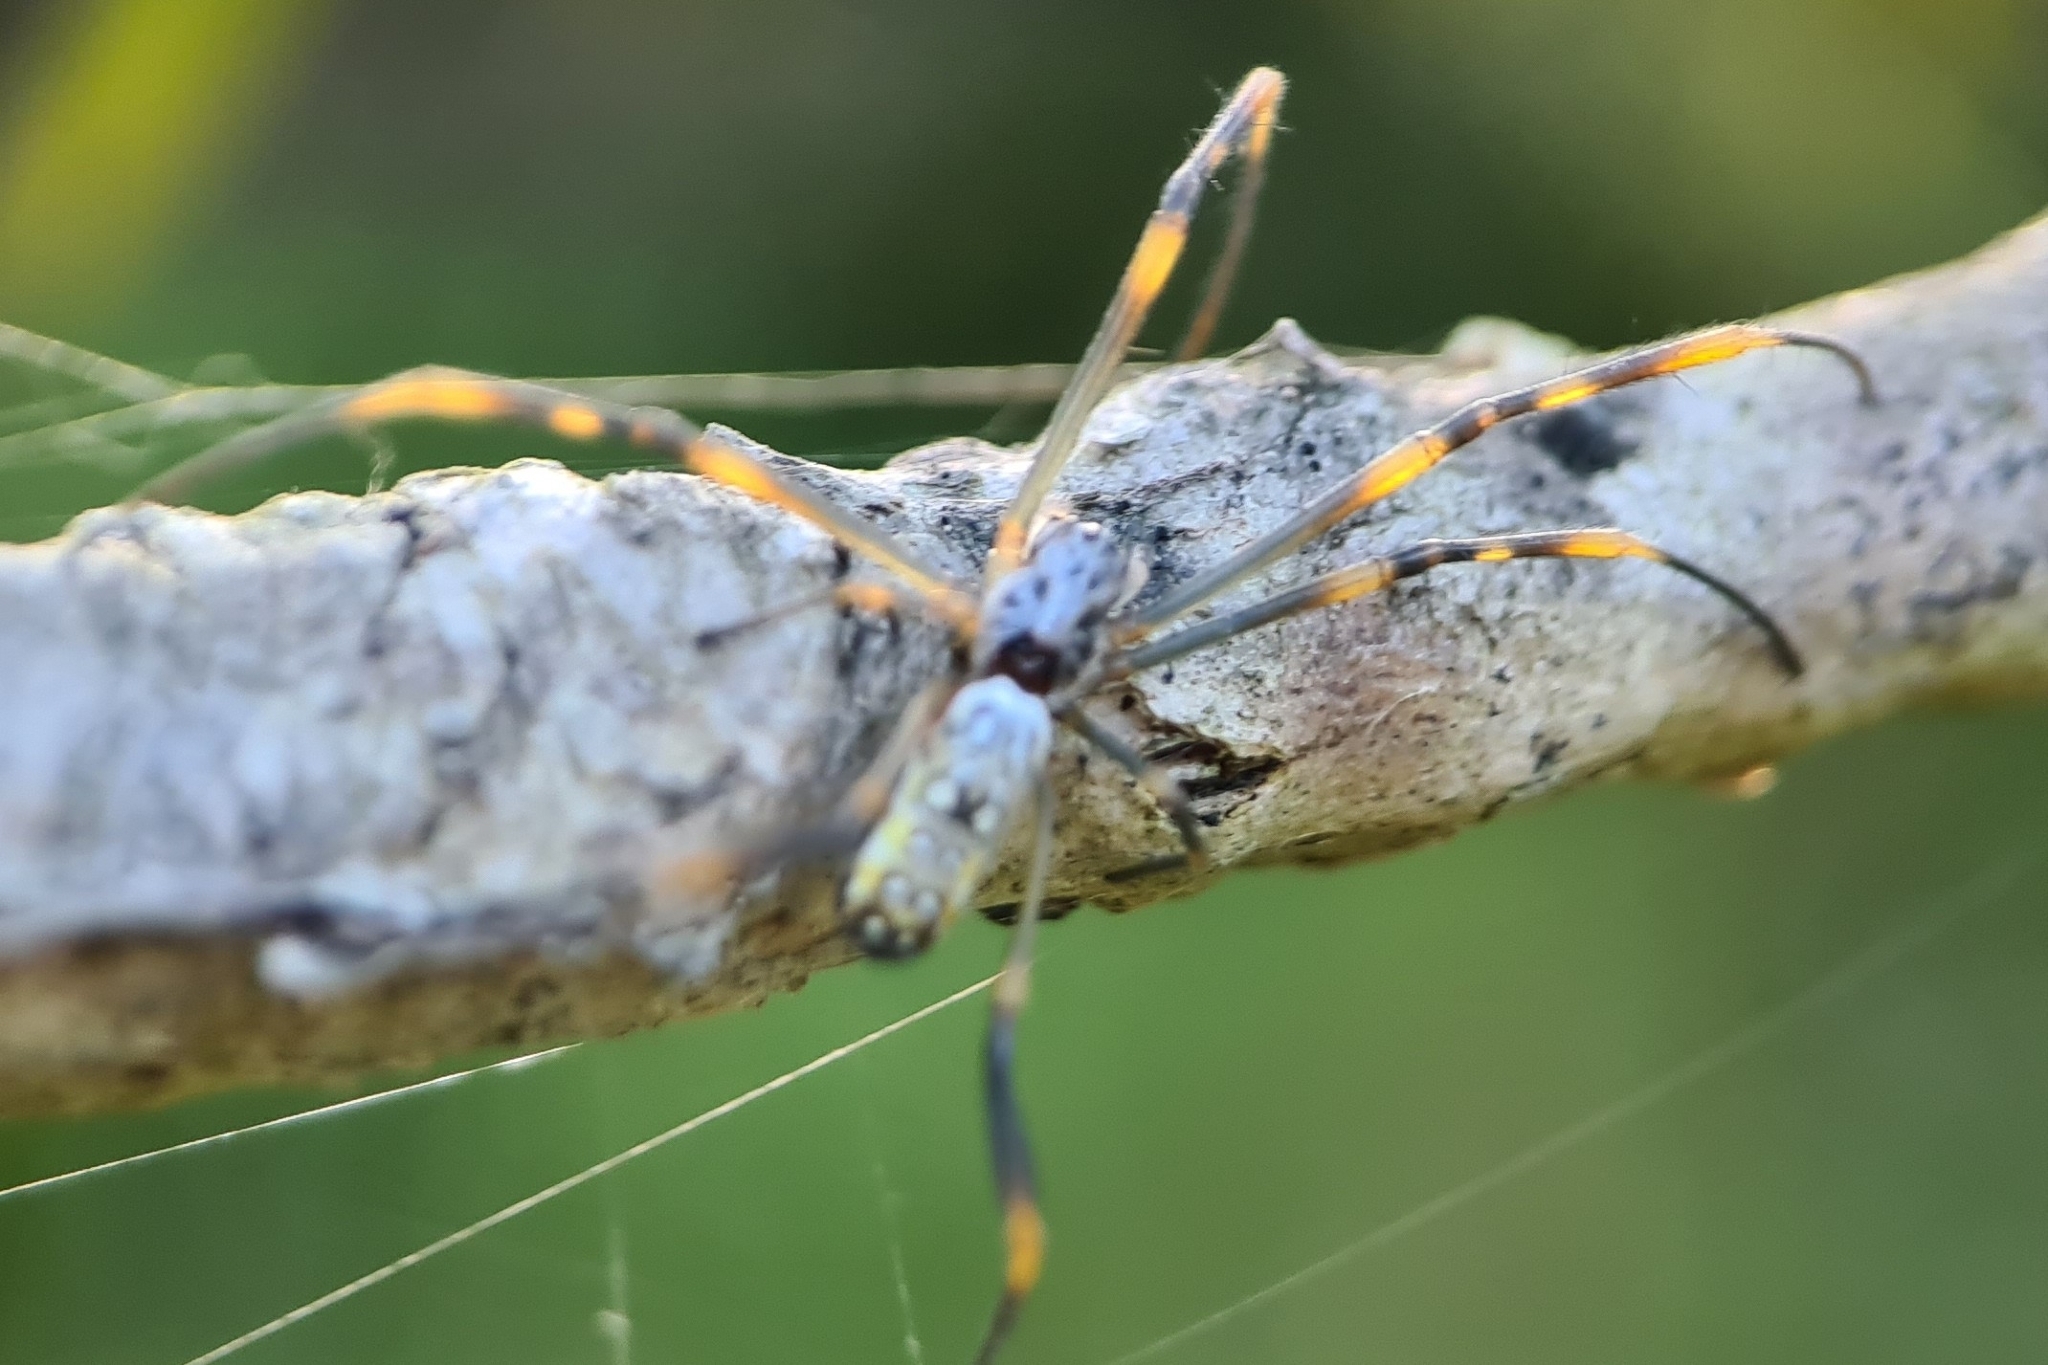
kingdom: Animalia
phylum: Arthropoda
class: Arachnida
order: Araneae
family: Araneidae
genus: Trichonephila
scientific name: Trichonephila plumipes
